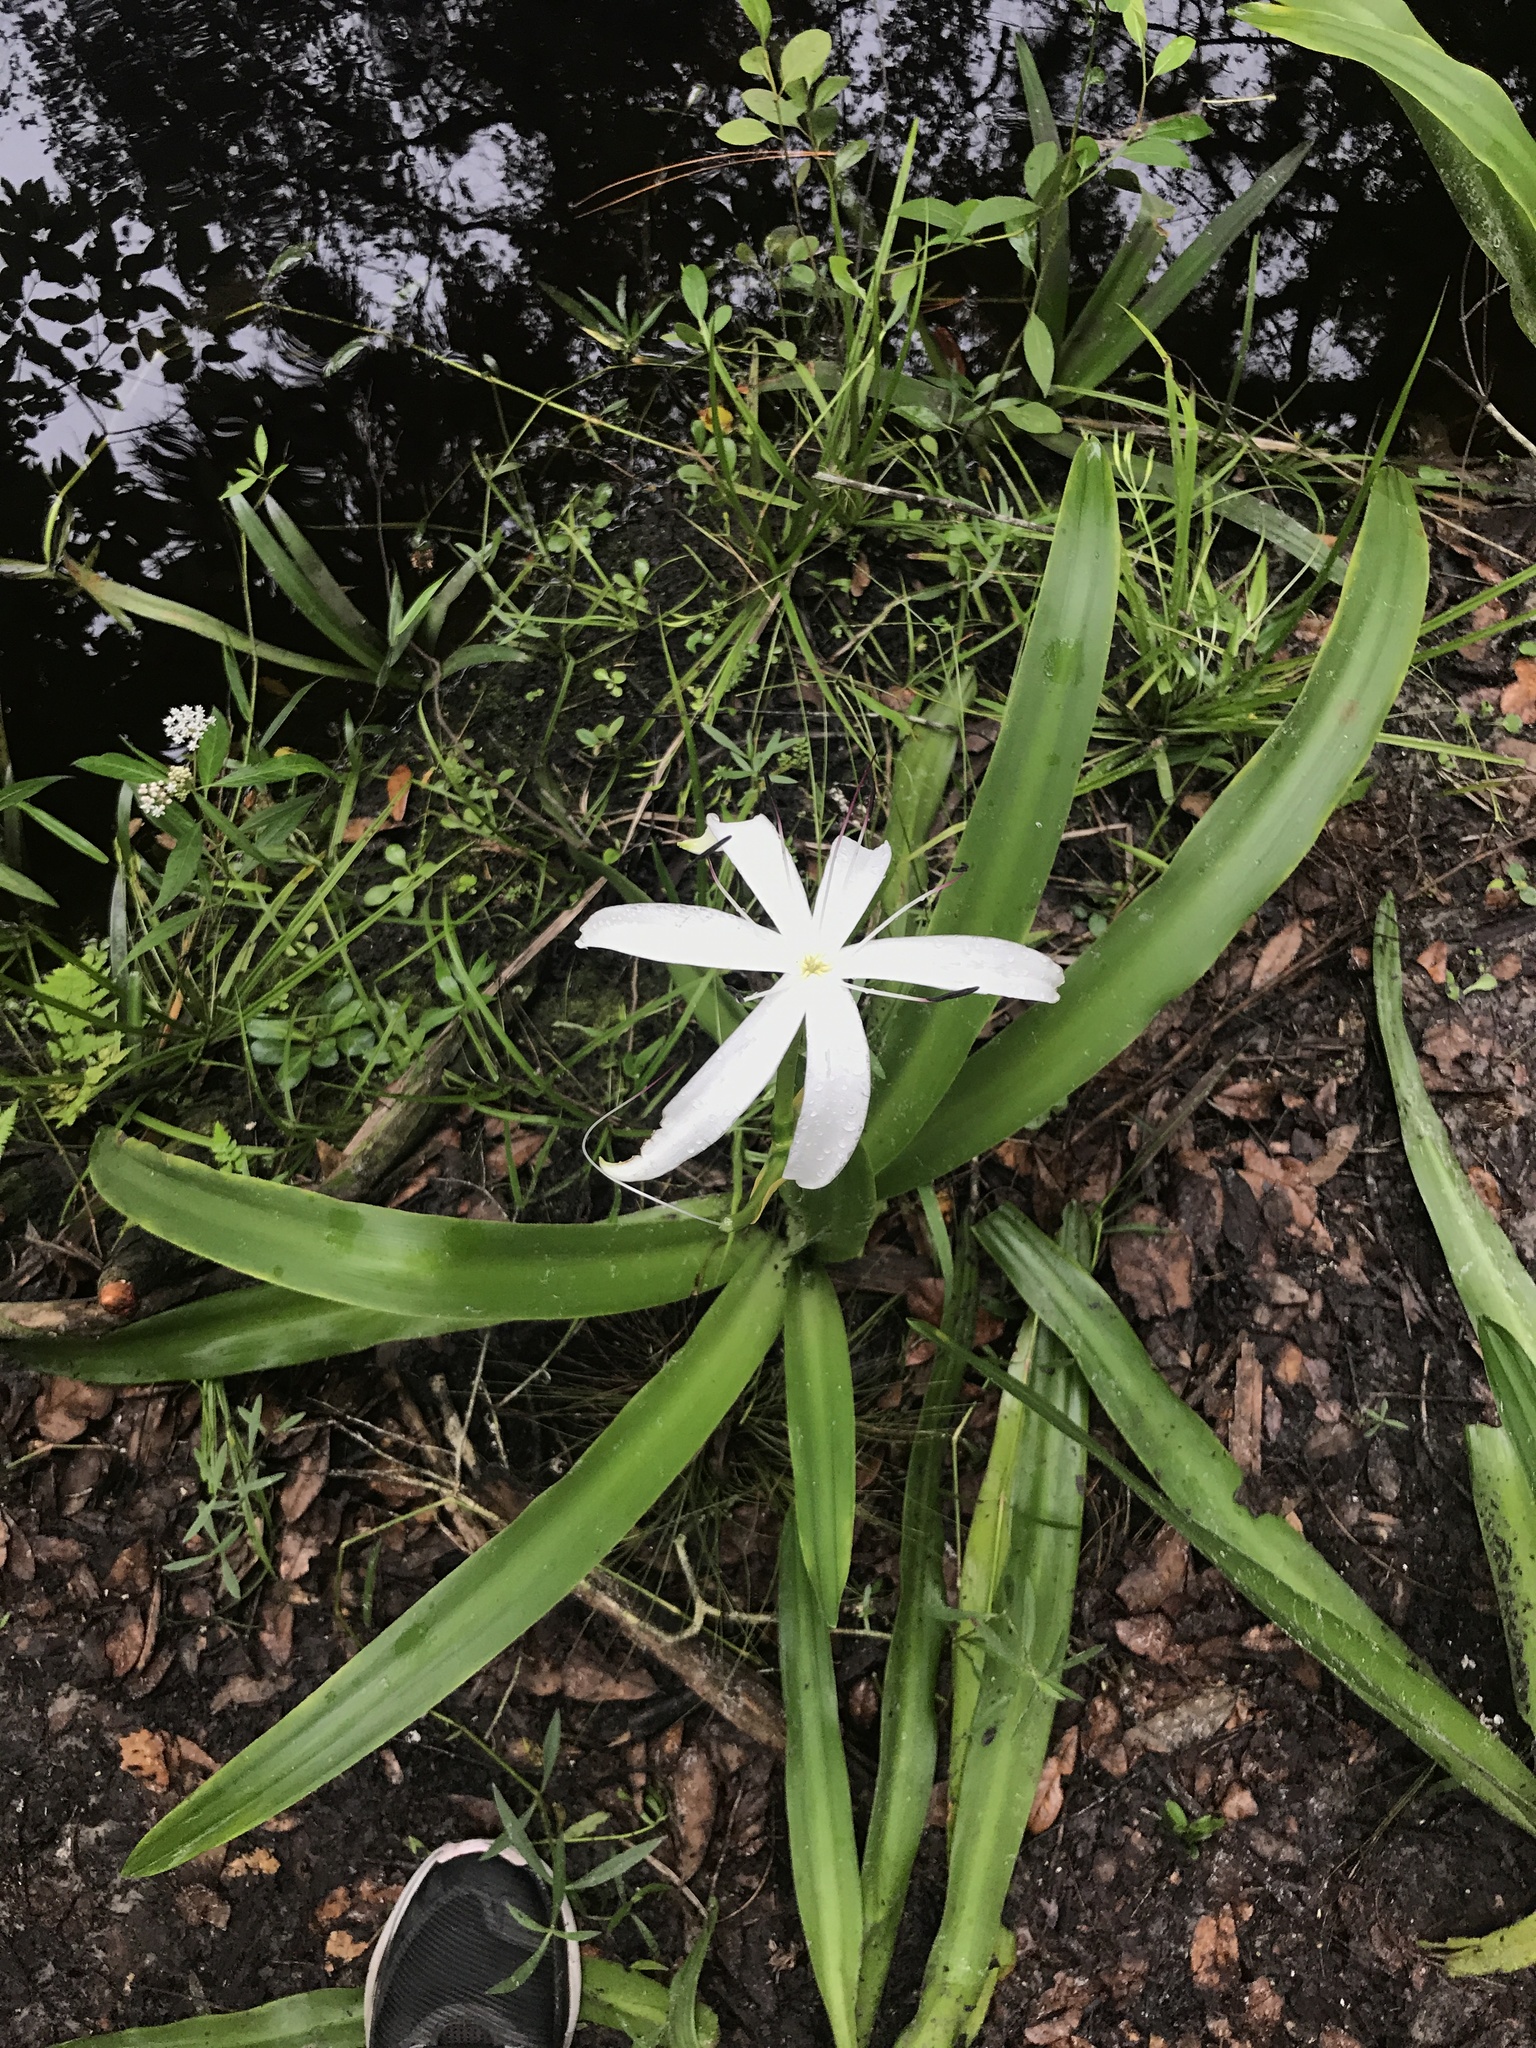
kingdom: Plantae
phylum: Tracheophyta
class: Liliopsida
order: Asparagales
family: Amaryllidaceae
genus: Crinum
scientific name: Crinum americanum
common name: Florida swamp-lily
